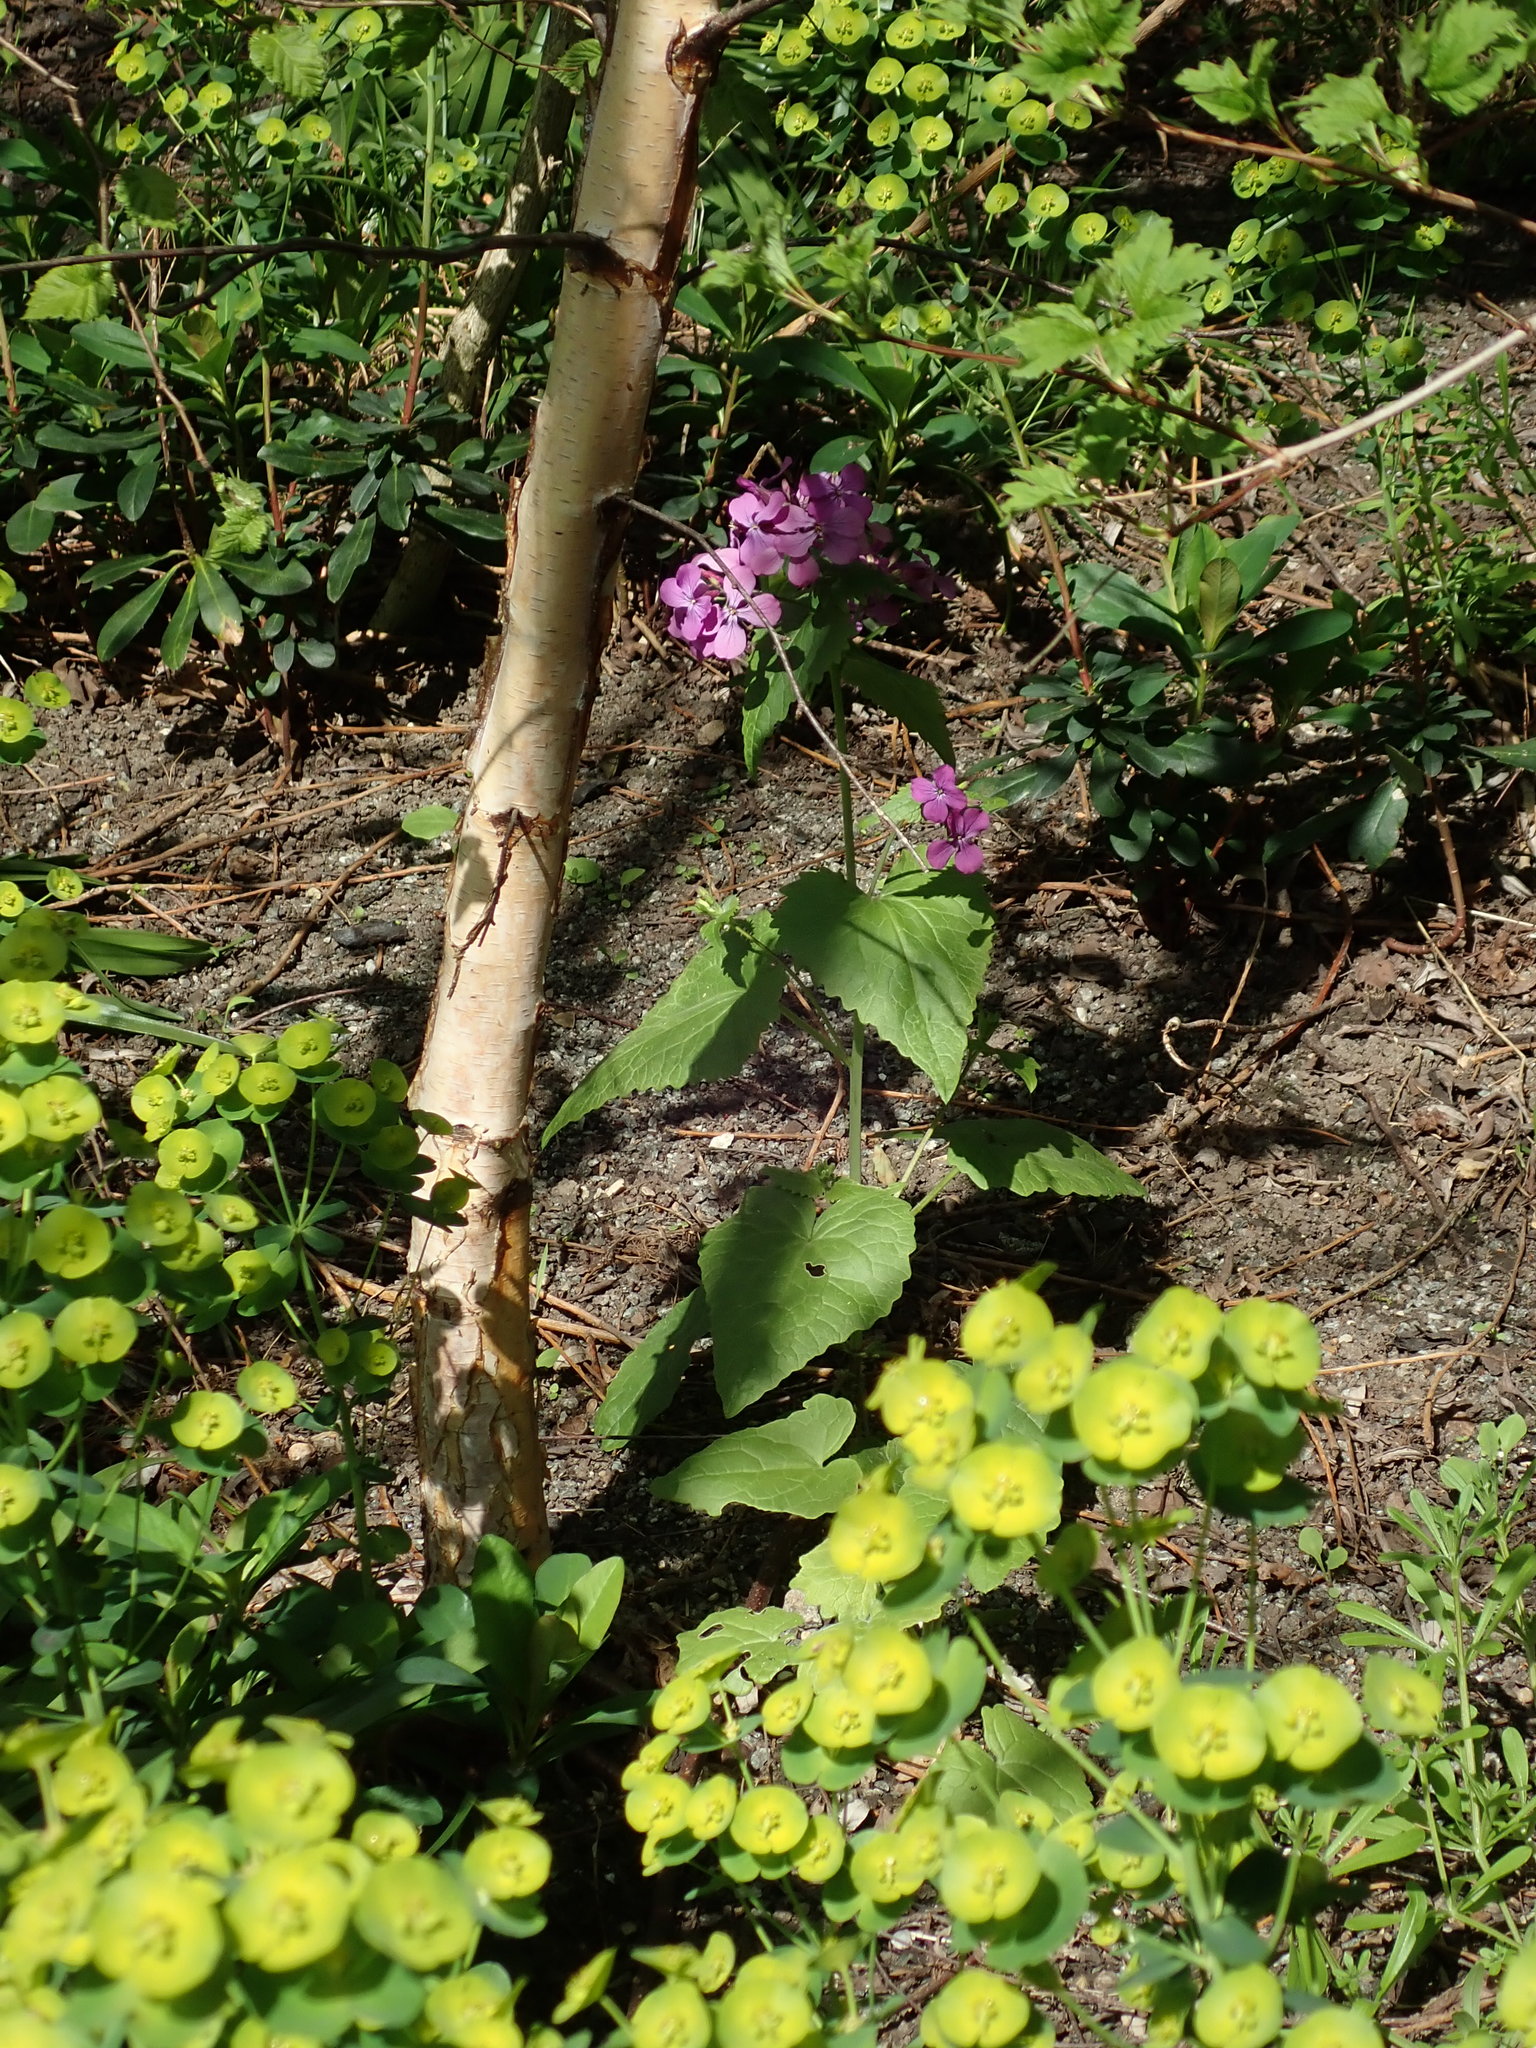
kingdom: Plantae
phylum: Tracheophyta
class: Magnoliopsida
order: Brassicales
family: Brassicaceae
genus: Lunaria
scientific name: Lunaria annua
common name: Honesty
